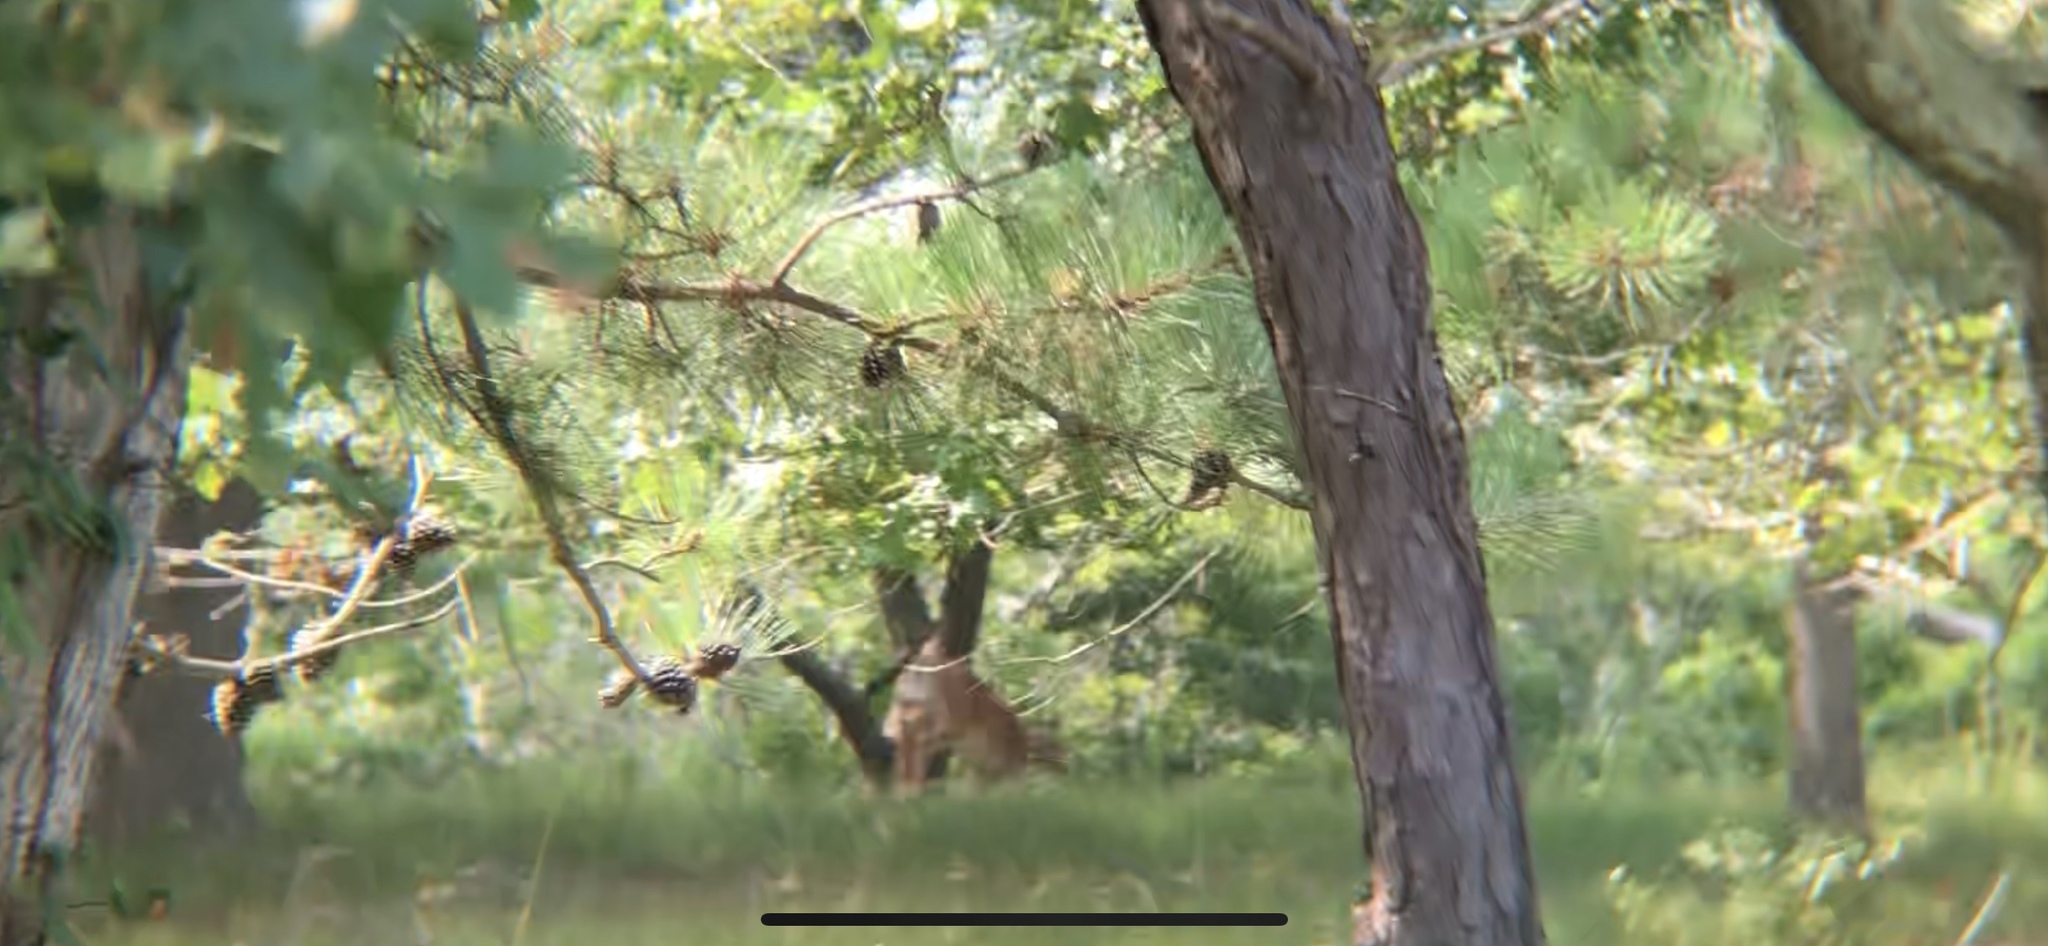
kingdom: Animalia
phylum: Chordata
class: Mammalia
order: Artiodactyla
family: Cervidae
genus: Odocoileus
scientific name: Odocoileus virginianus
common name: White-tailed deer
